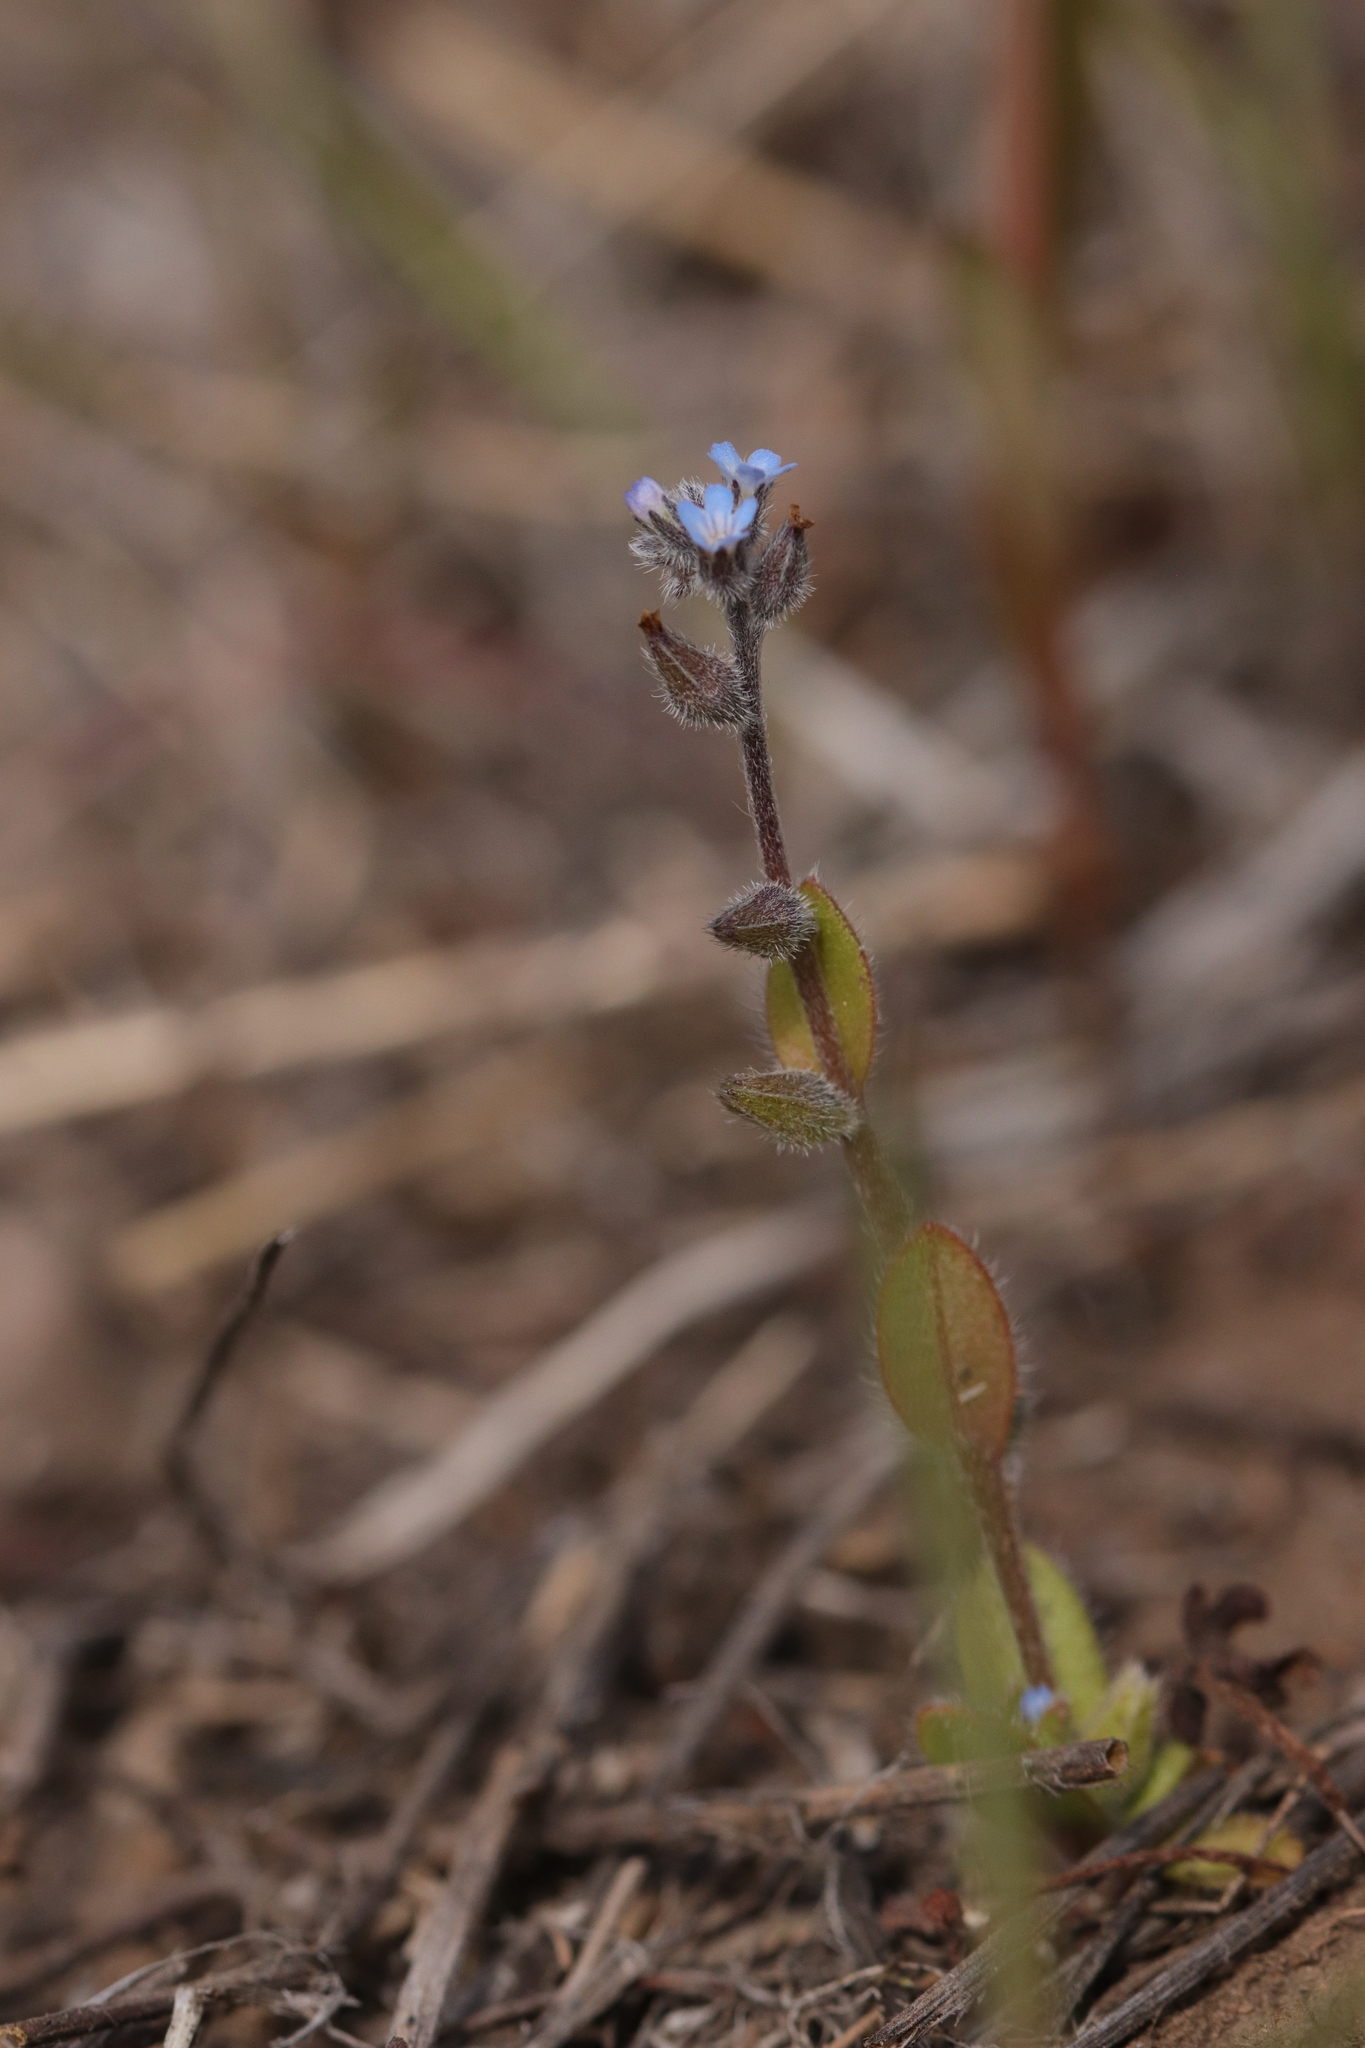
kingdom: Plantae
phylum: Tracheophyta
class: Magnoliopsida
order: Boraginales
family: Boraginaceae
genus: Myosotis
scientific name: Myosotis stricta
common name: Strict forget-me-not
